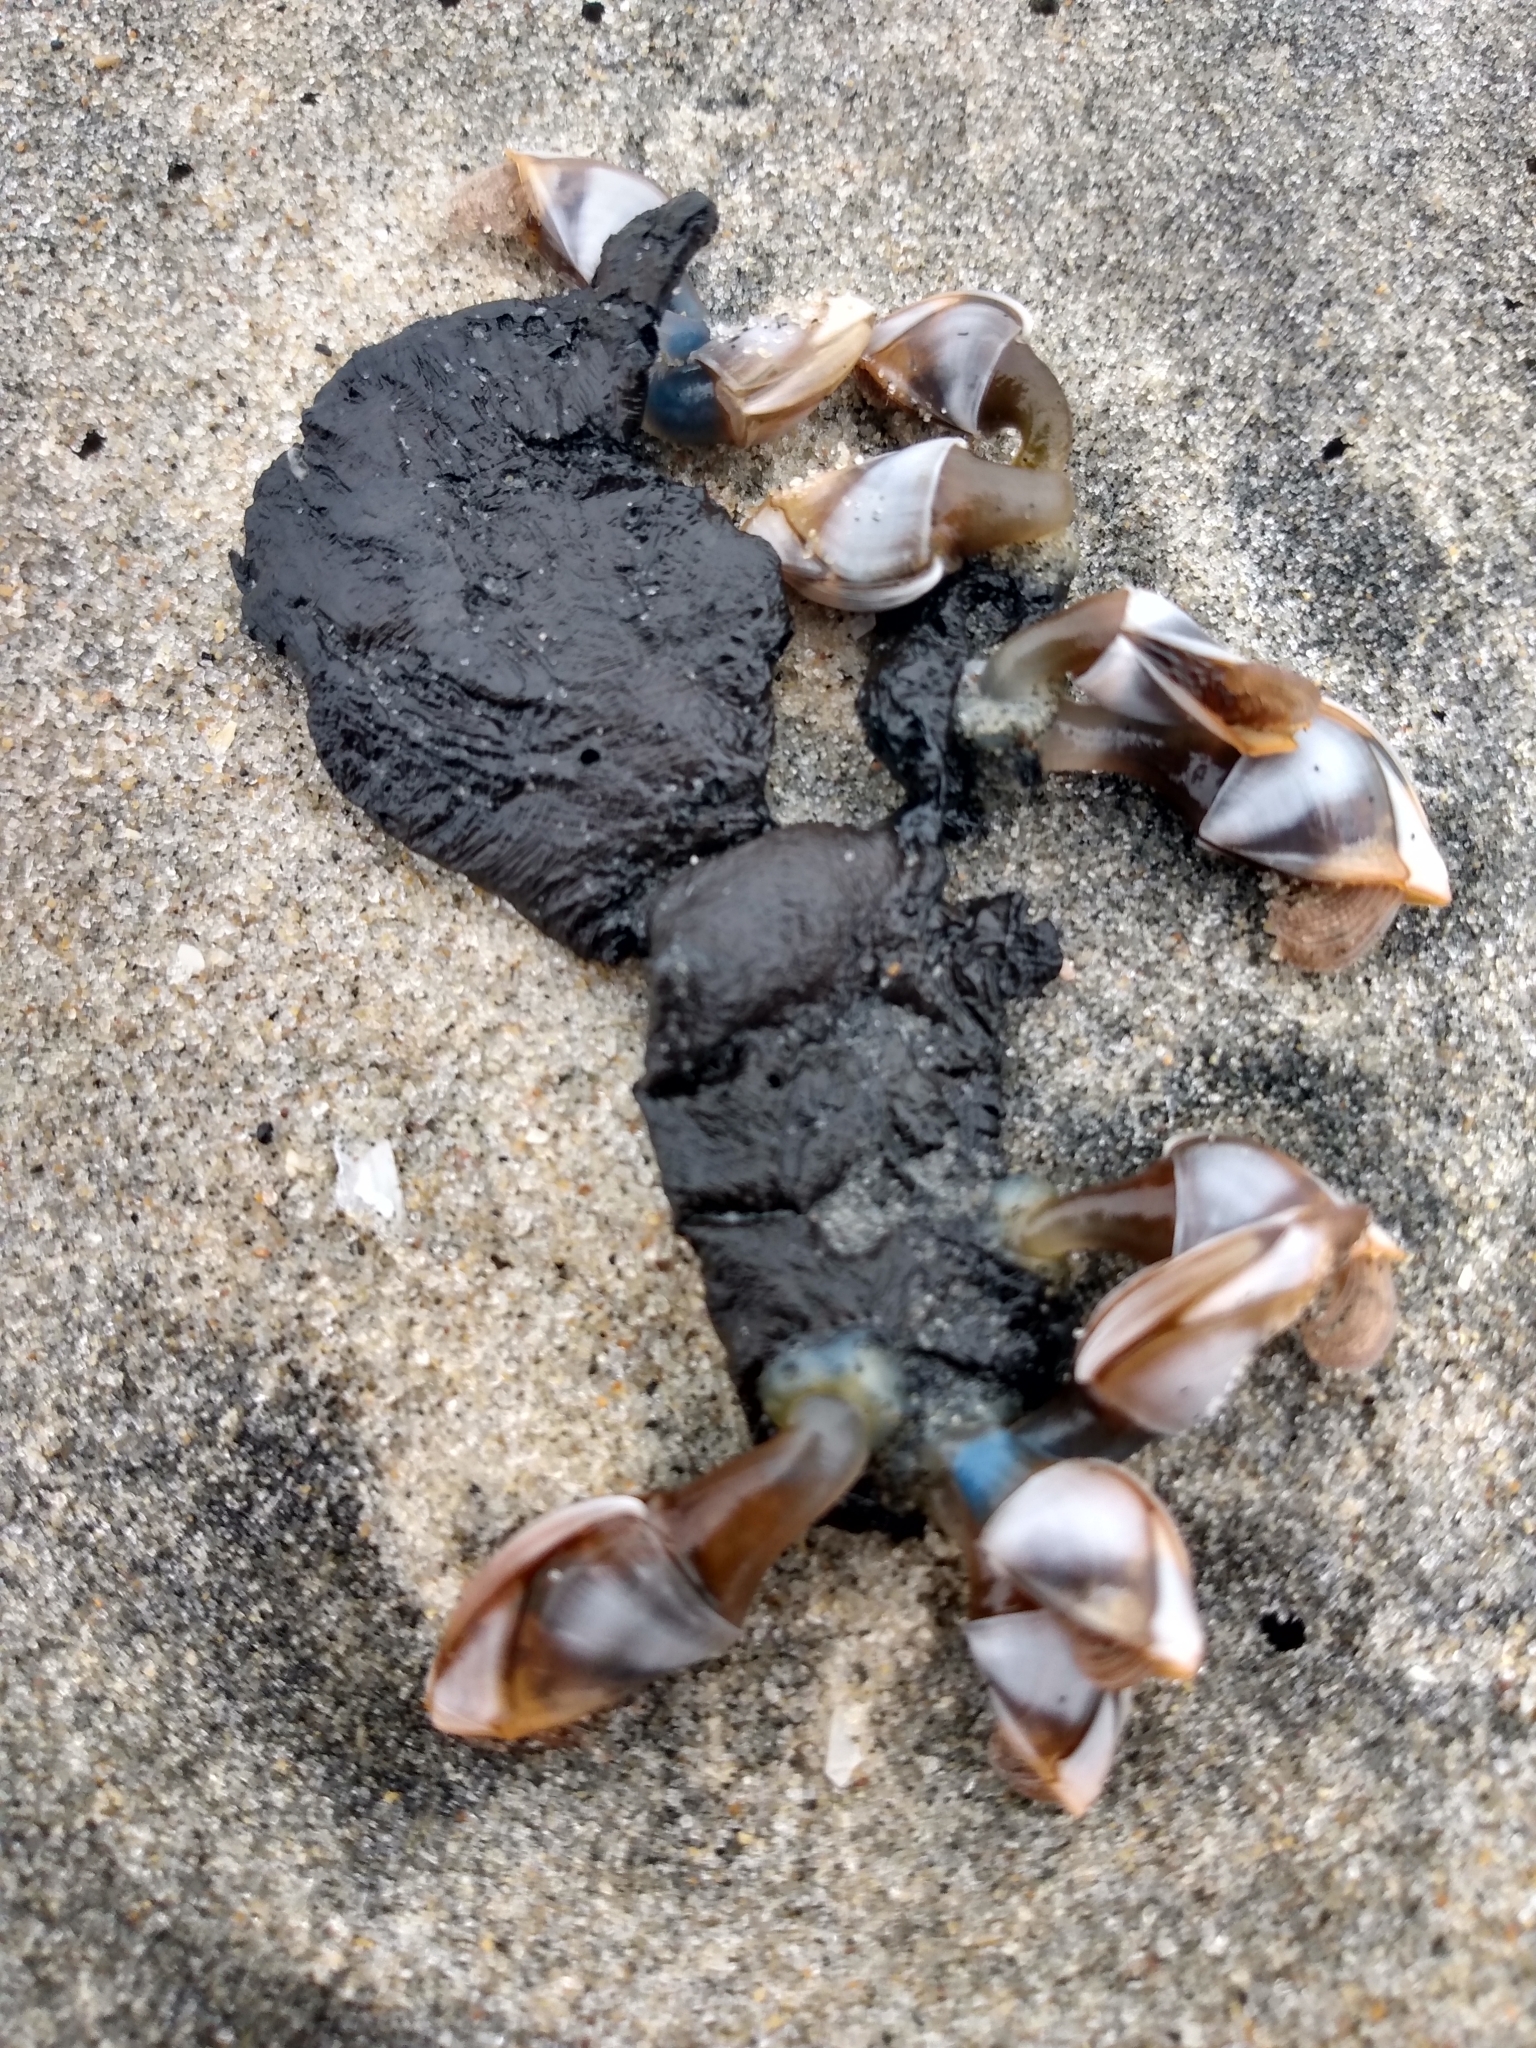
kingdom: Animalia
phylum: Arthropoda
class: Maxillopoda
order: Pedunculata
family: Lepadidae
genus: Lepas
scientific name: Lepas pacifica
